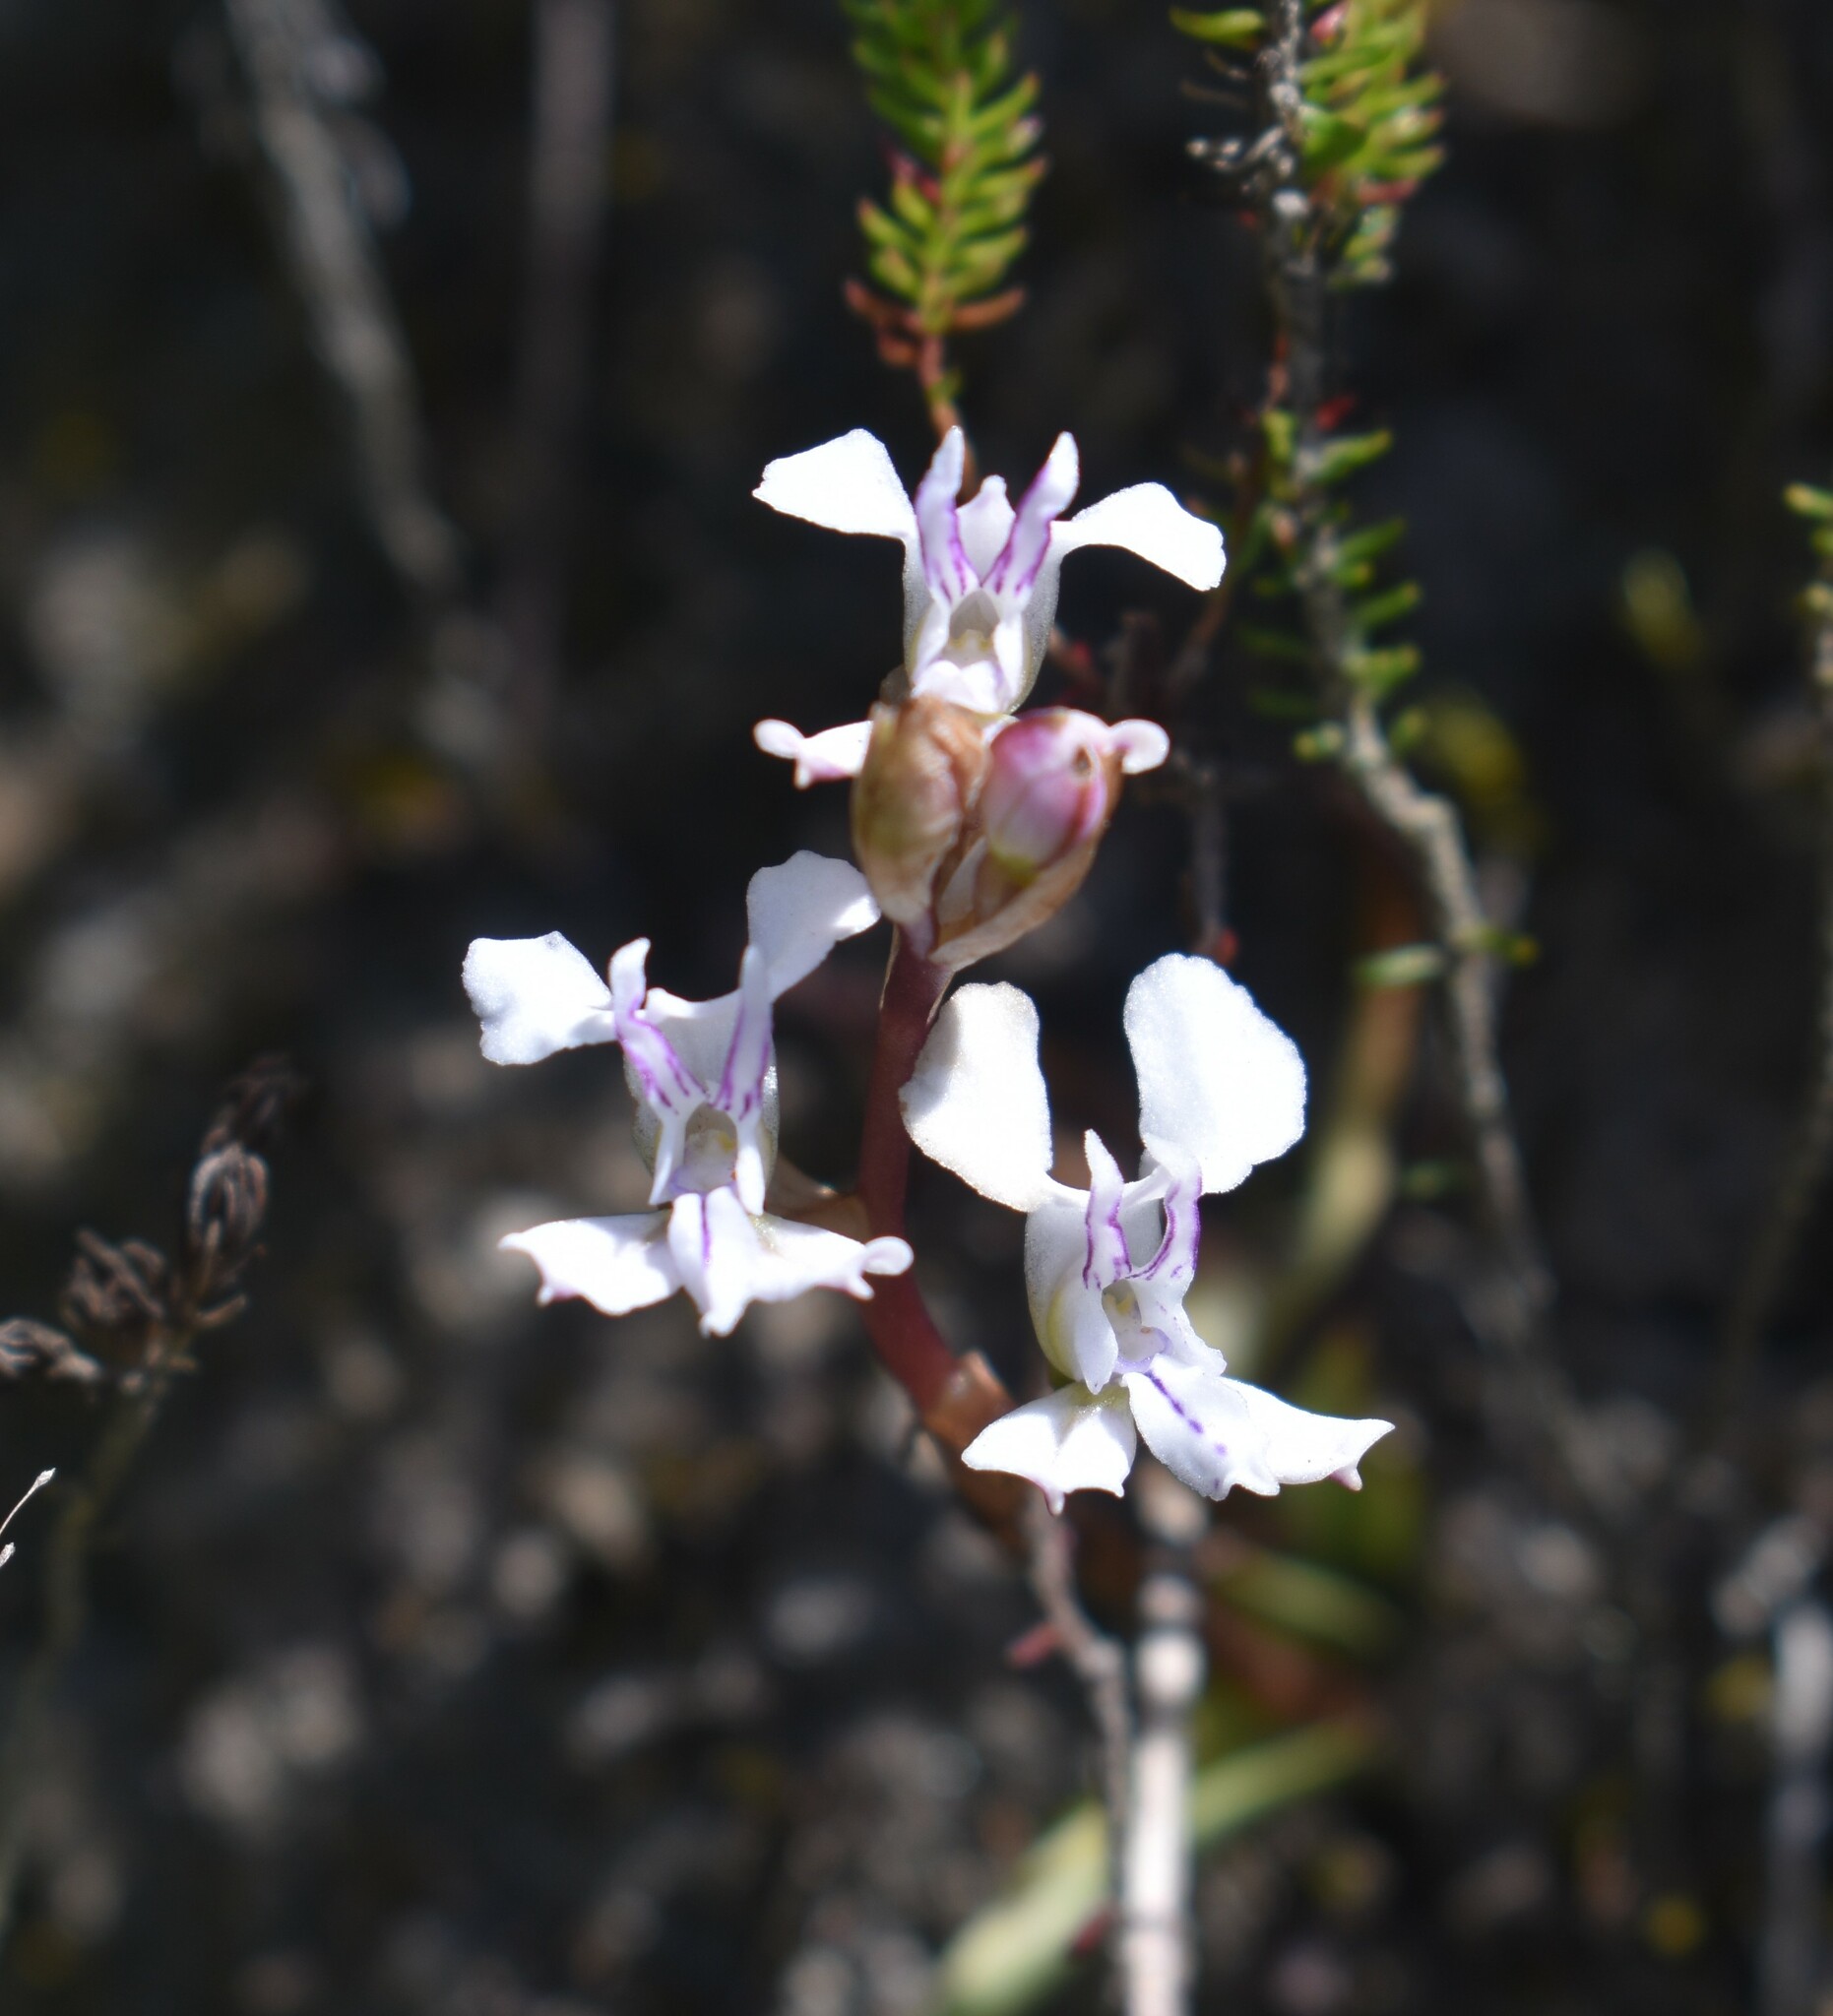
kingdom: Plantae
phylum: Tracheophyta
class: Liliopsida
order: Asparagales
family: Orchidaceae
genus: Disa
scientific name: Disa sagittalis
